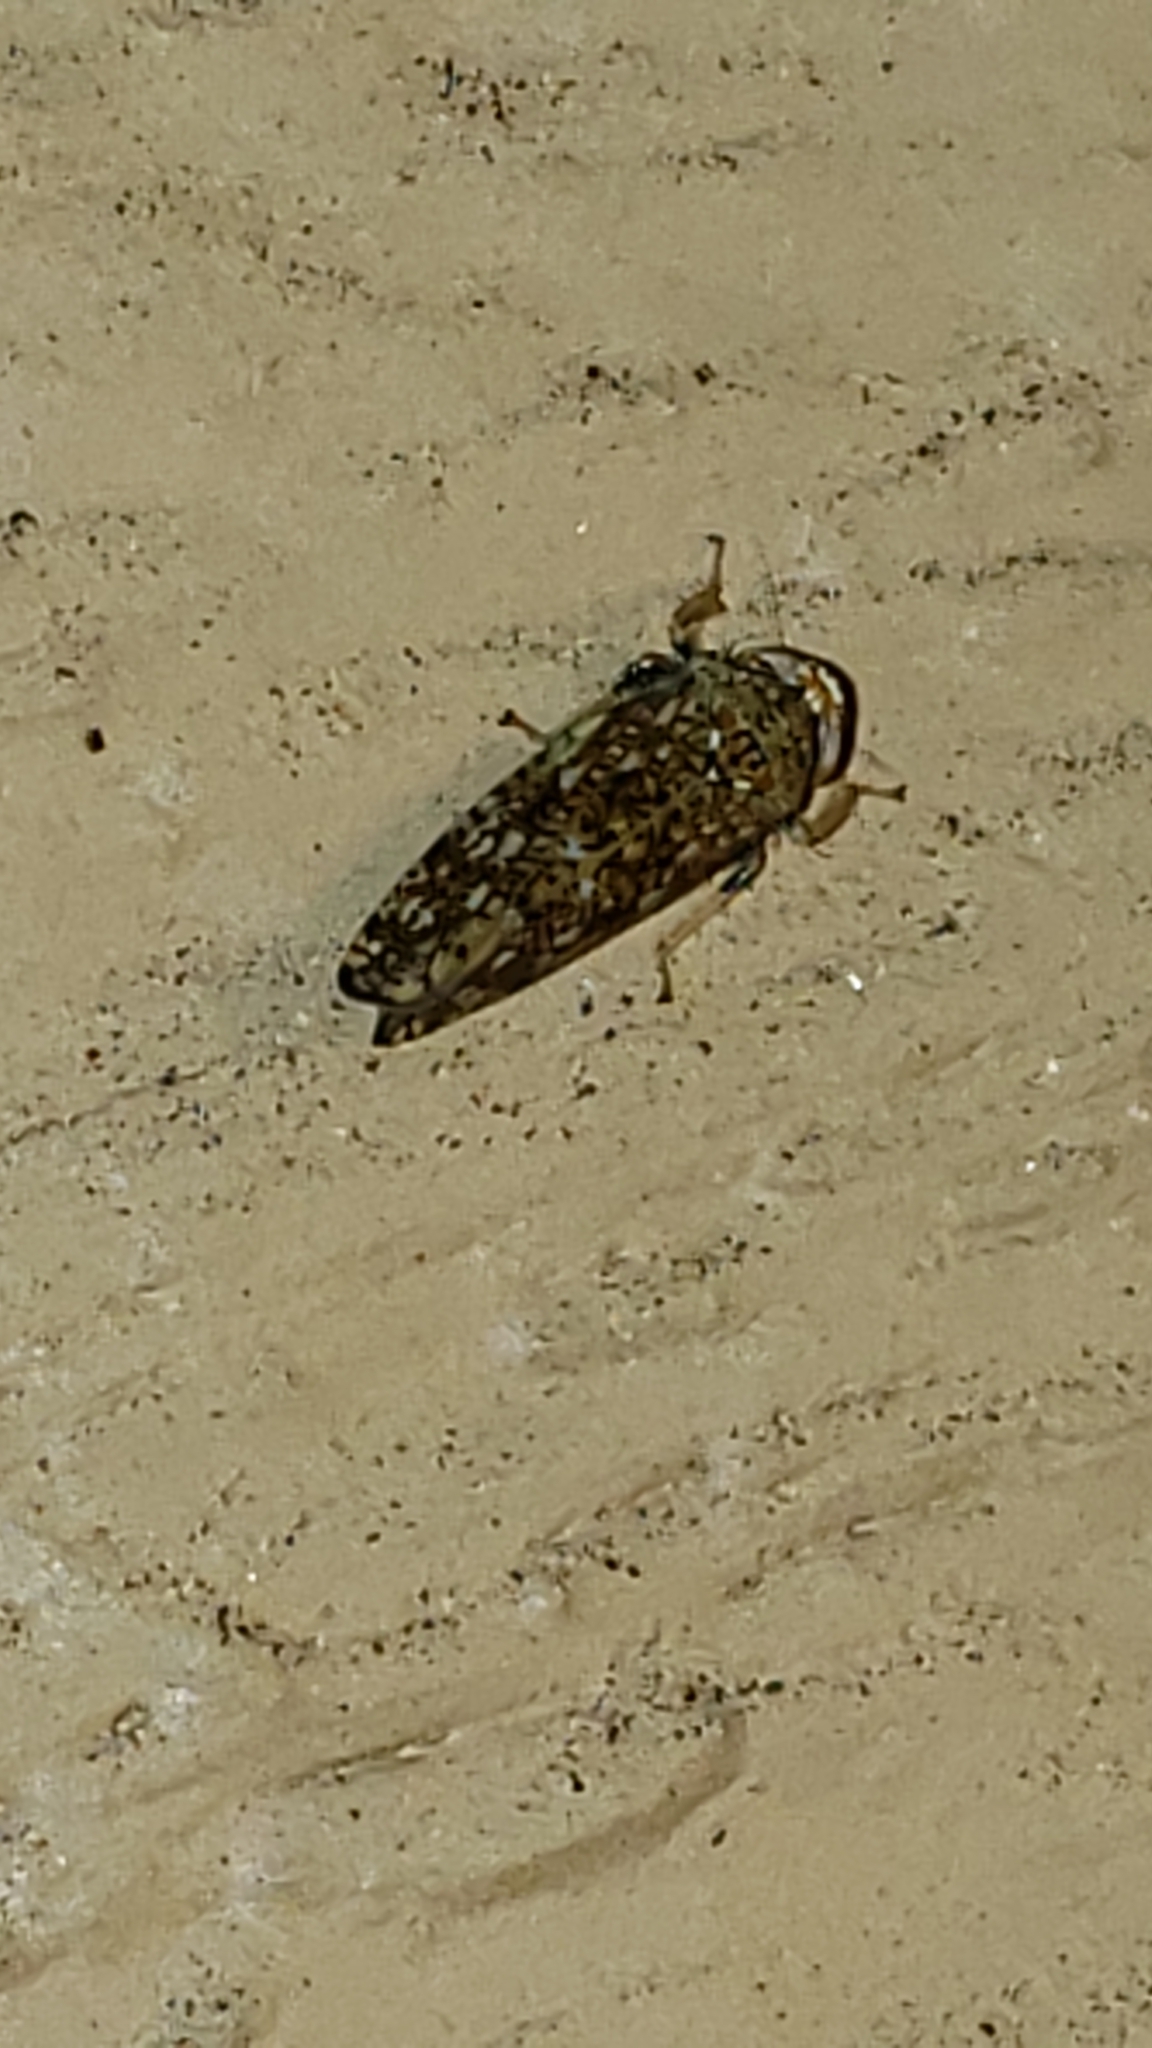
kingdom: Animalia
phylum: Arthropoda
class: Insecta
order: Hemiptera
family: Cicadellidae
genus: Orientus
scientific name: Orientus ishidae
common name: Japanese leafhopper
